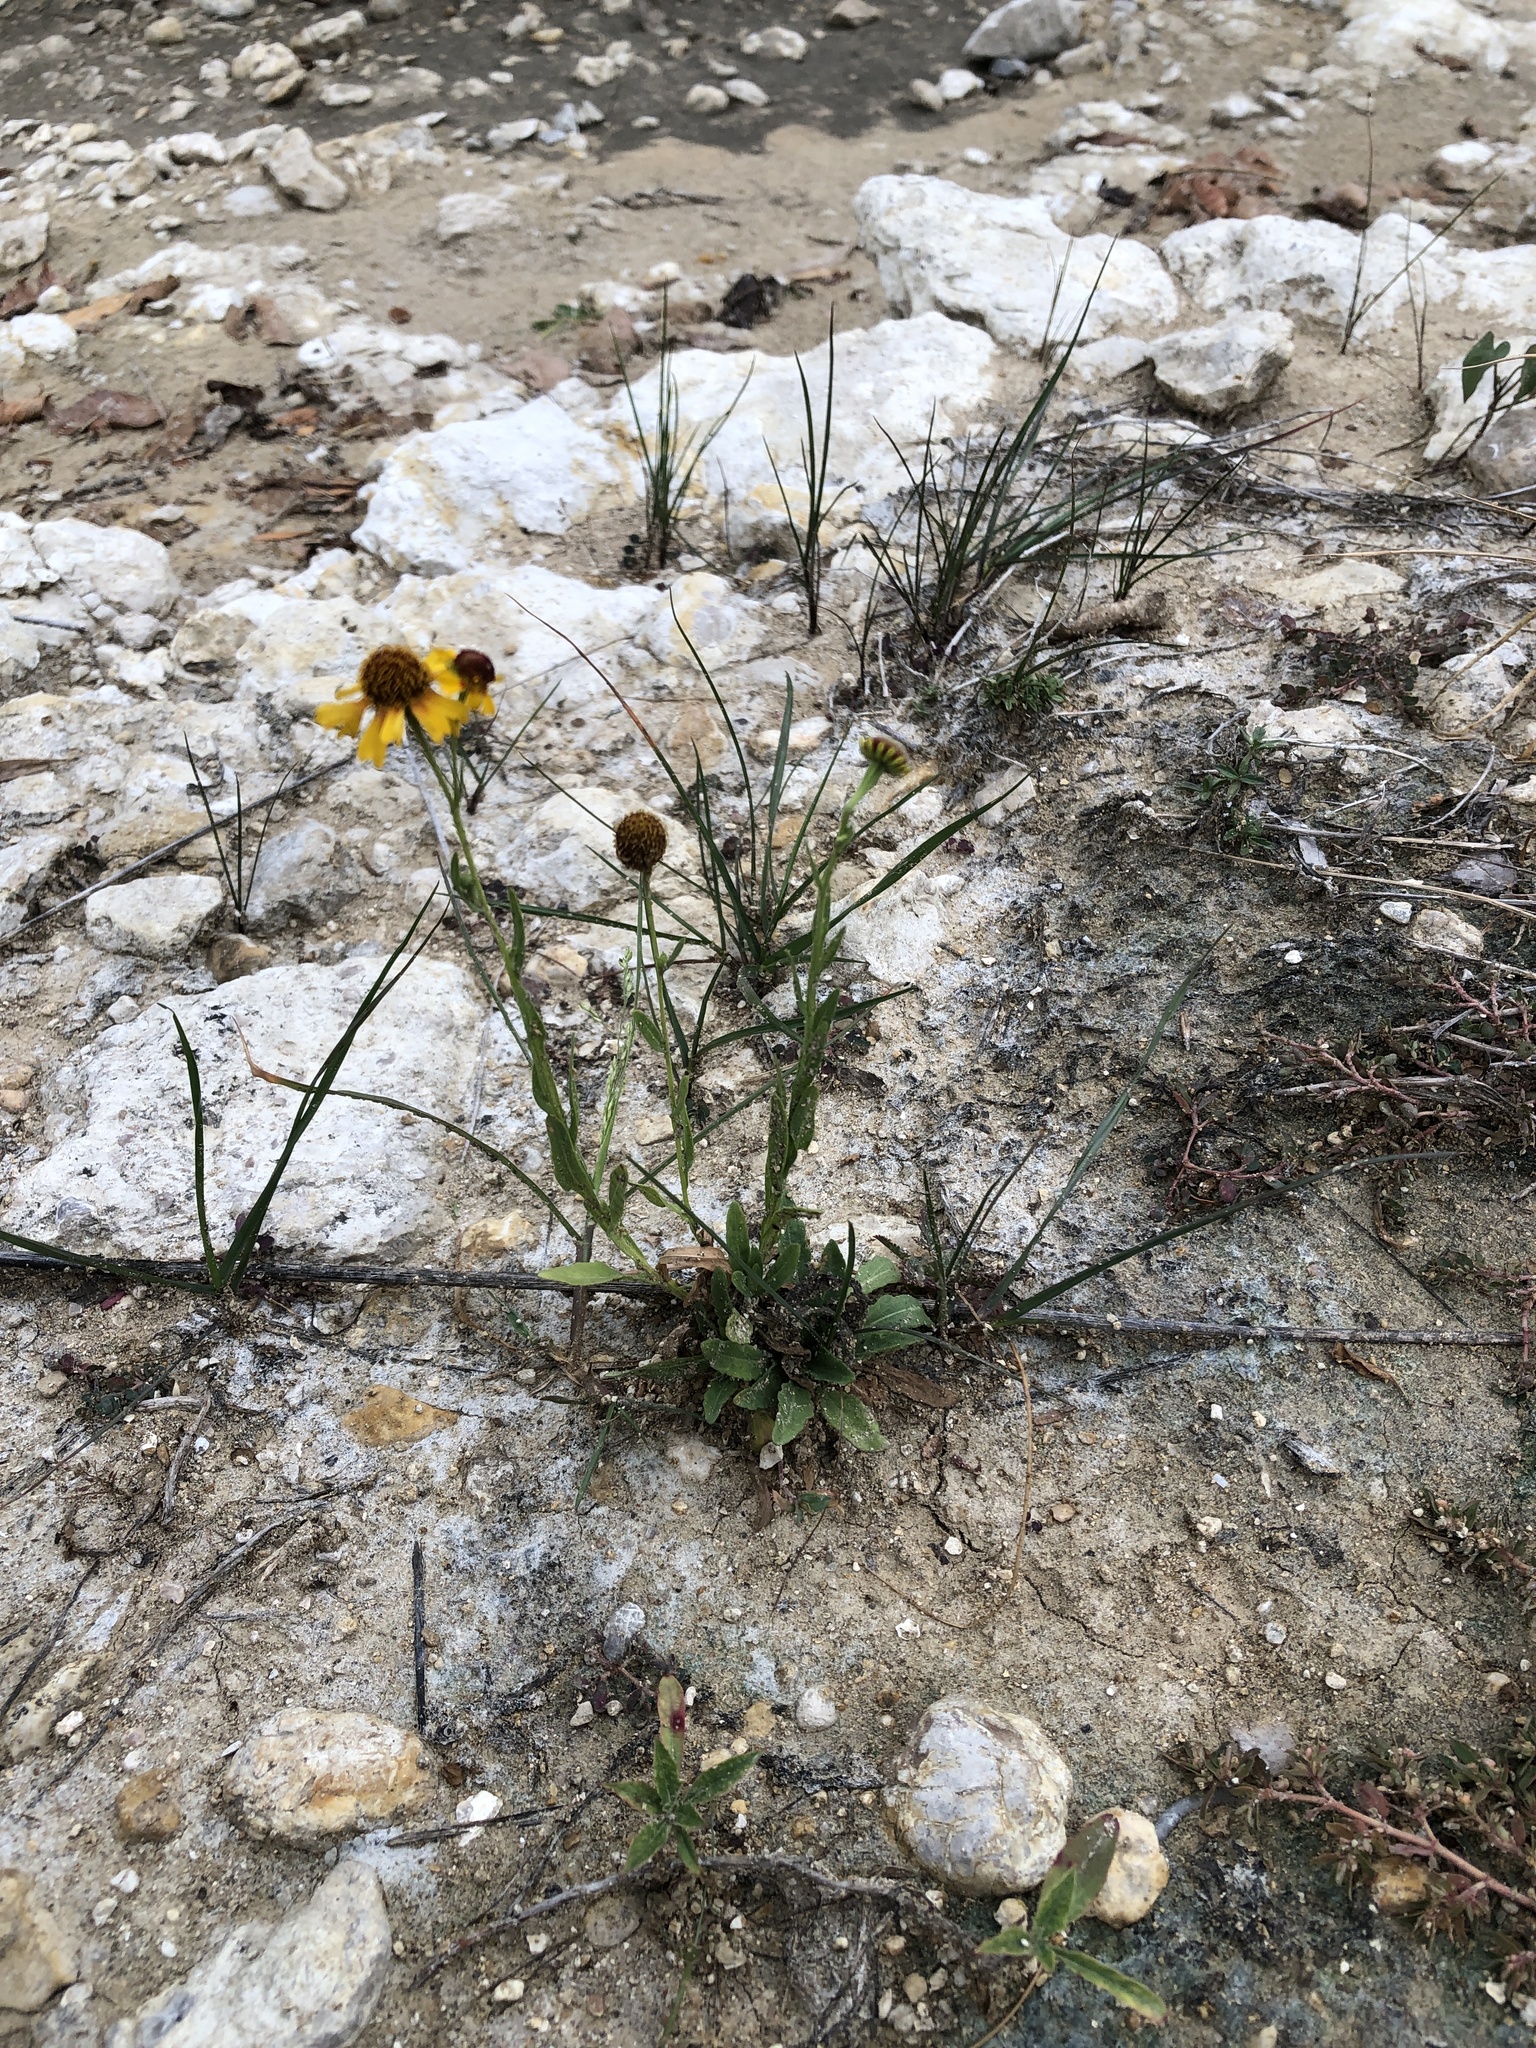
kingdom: Plantae
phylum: Tracheophyta
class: Magnoliopsida
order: Asterales
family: Asteraceae
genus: Helenium
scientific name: Helenium elegans
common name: Pretty sneezeweed
